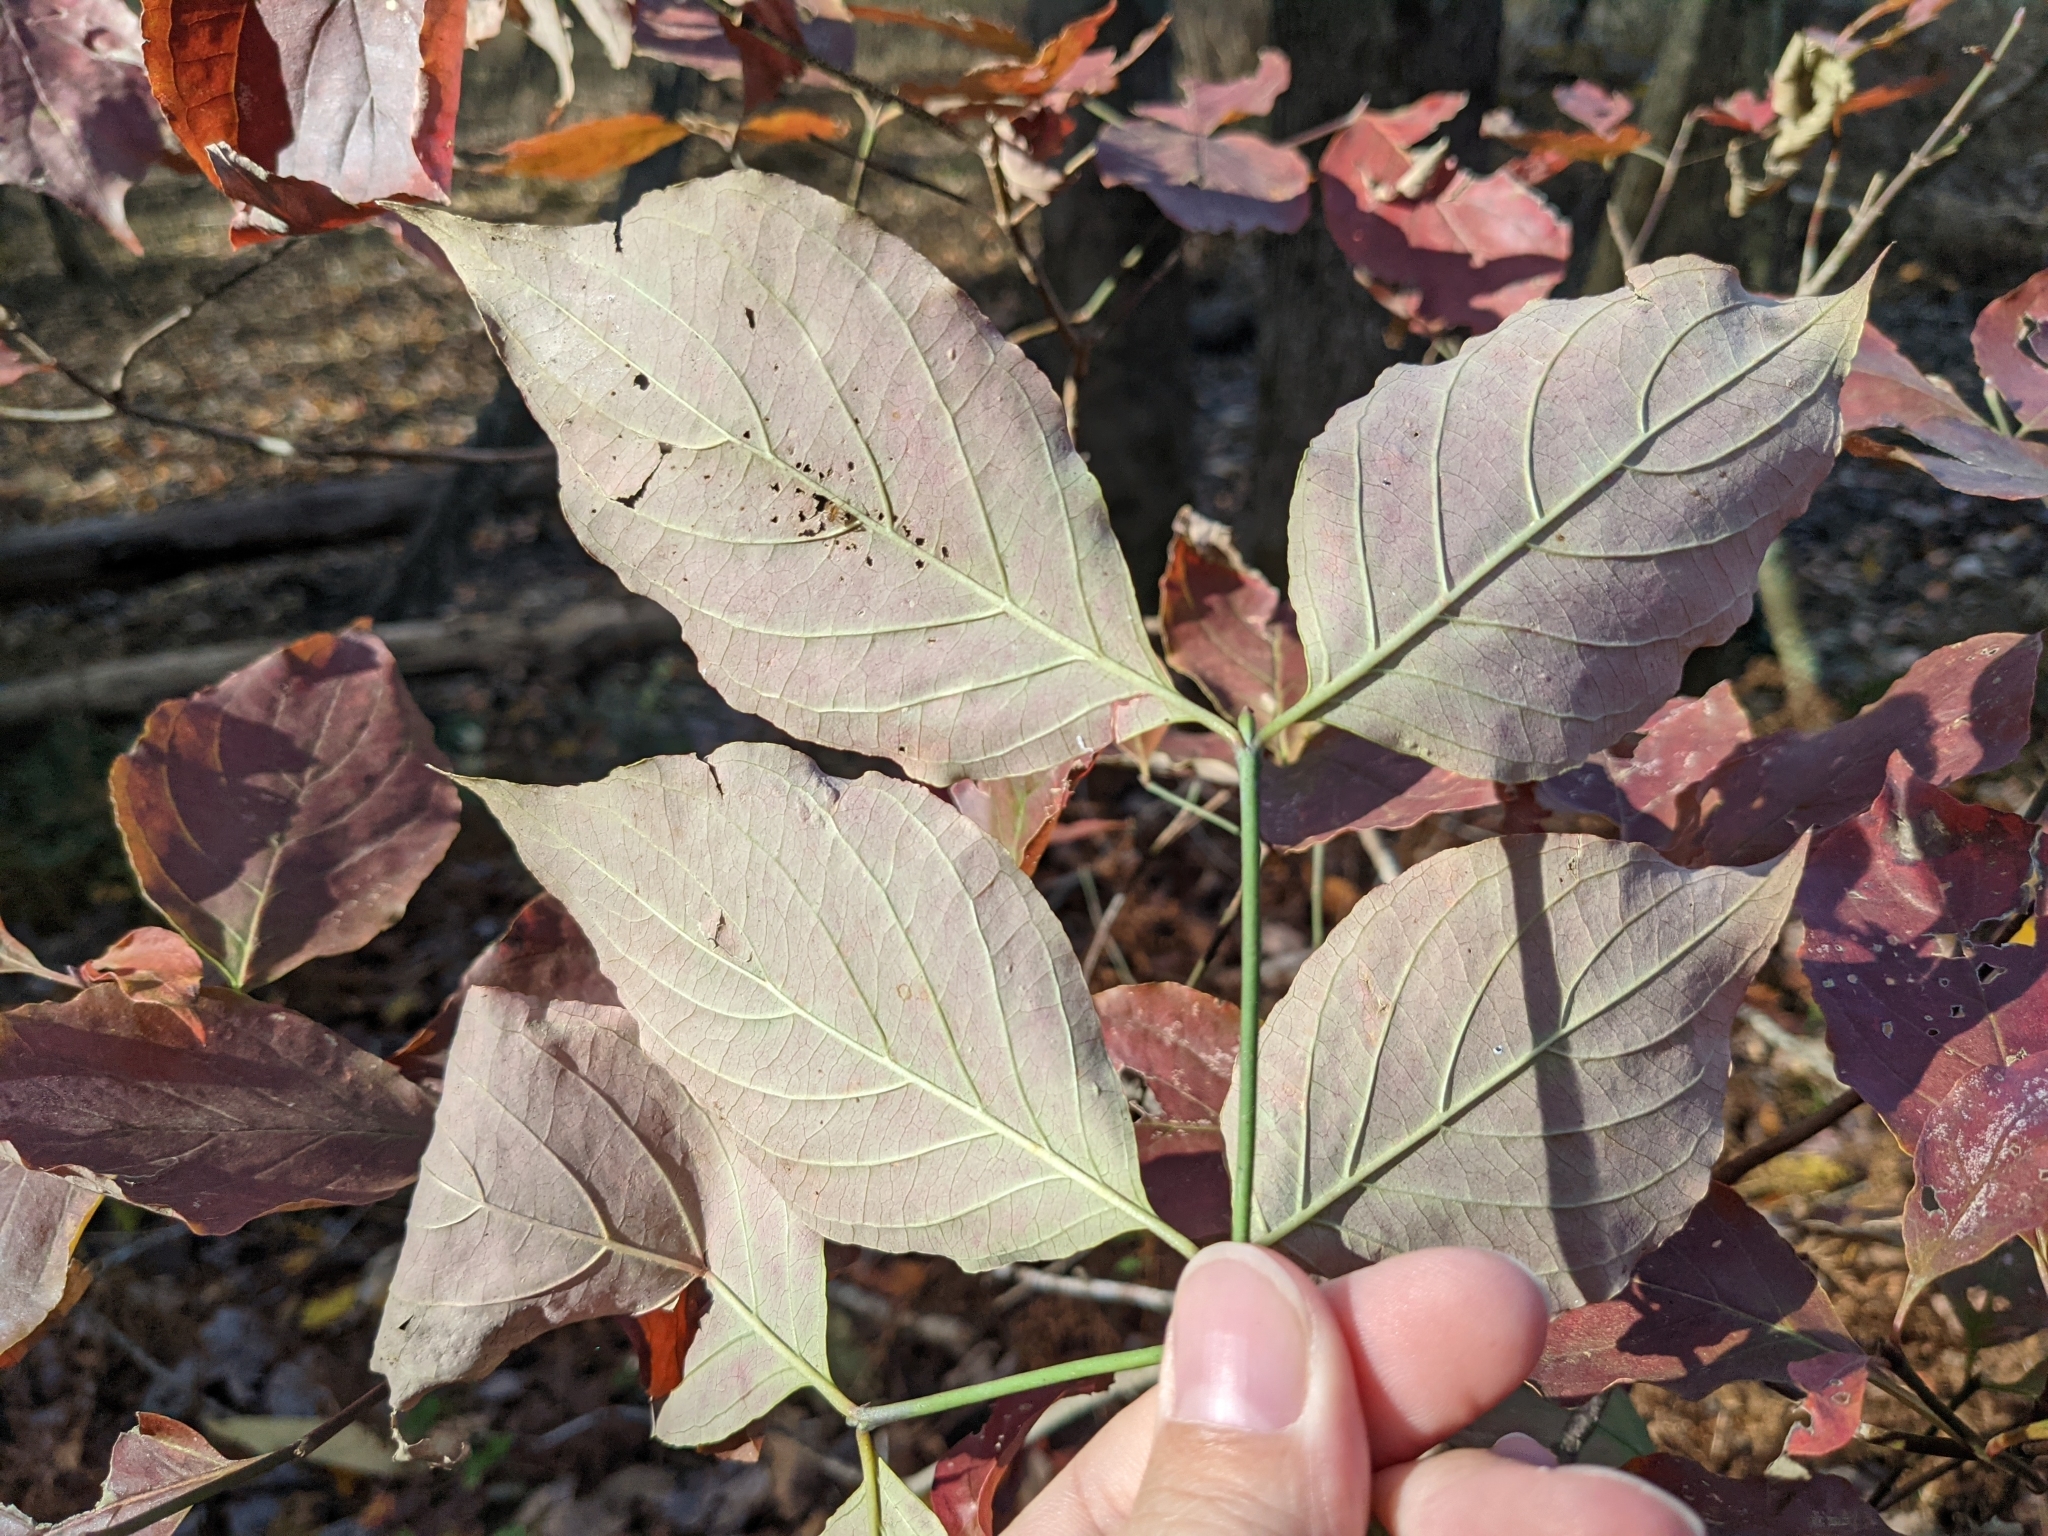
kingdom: Plantae
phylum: Tracheophyta
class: Magnoliopsida
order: Cornales
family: Cornaceae
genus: Cornus
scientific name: Cornus florida
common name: Flowering dogwood
